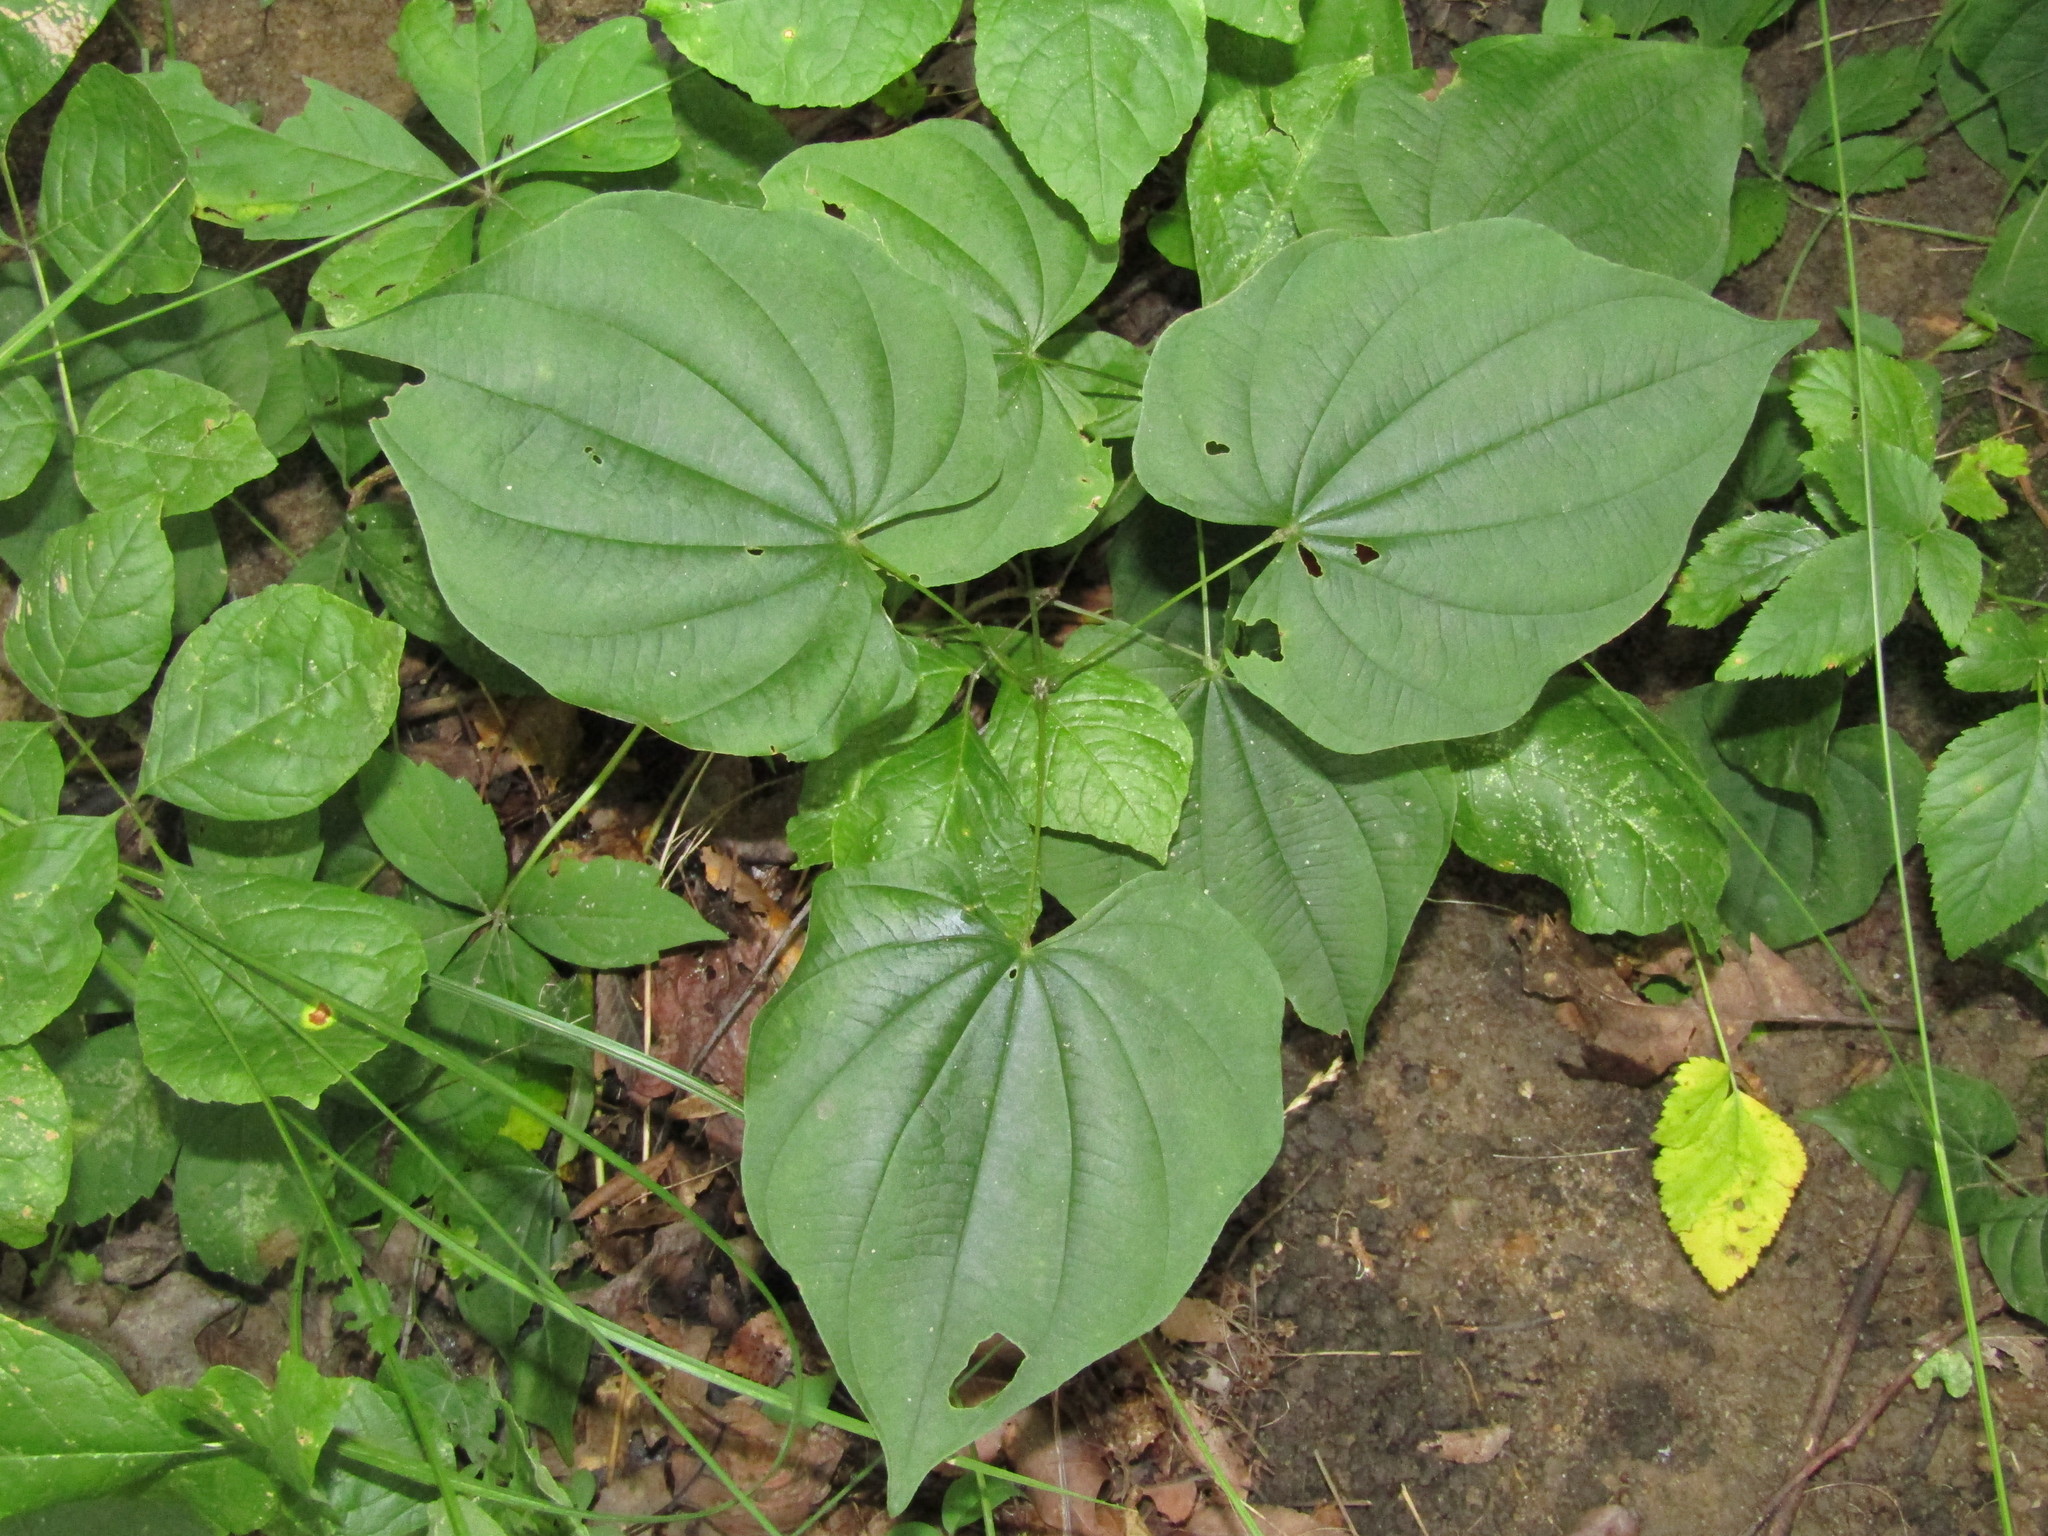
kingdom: Plantae
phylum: Tracheophyta
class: Liliopsida
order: Dioscoreales
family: Dioscoreaceae
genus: Dioscorea
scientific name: Dioscorea villosa
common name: Wild yam
